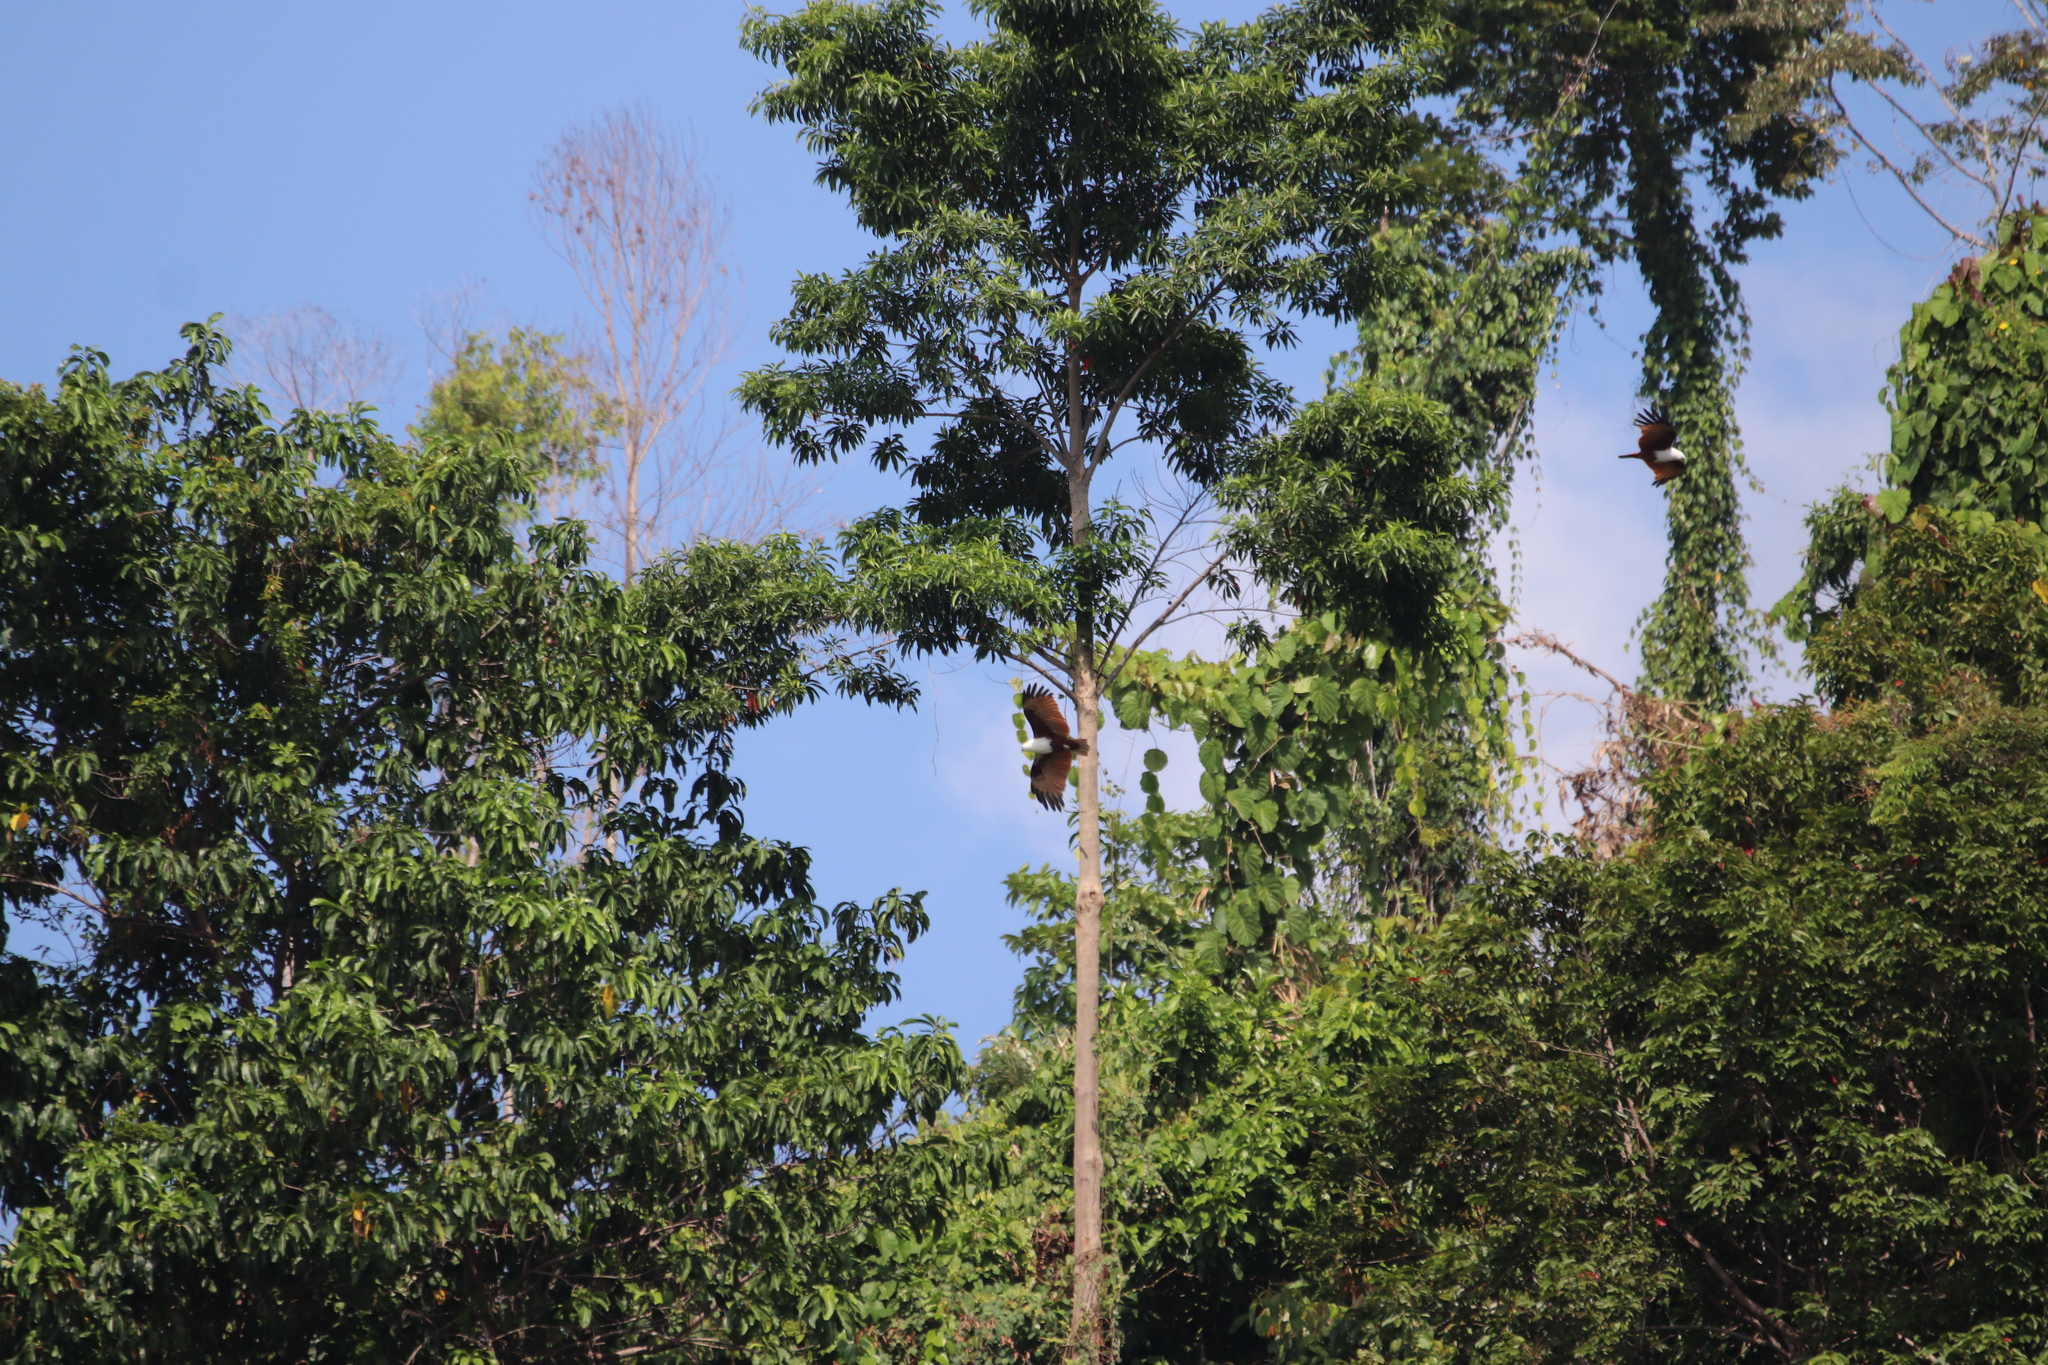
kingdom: Animalia
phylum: Chordata
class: Aves
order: Accipitriformes
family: Accipitridae
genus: Haliastur
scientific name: Haliastur indus
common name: Brahminy kite
